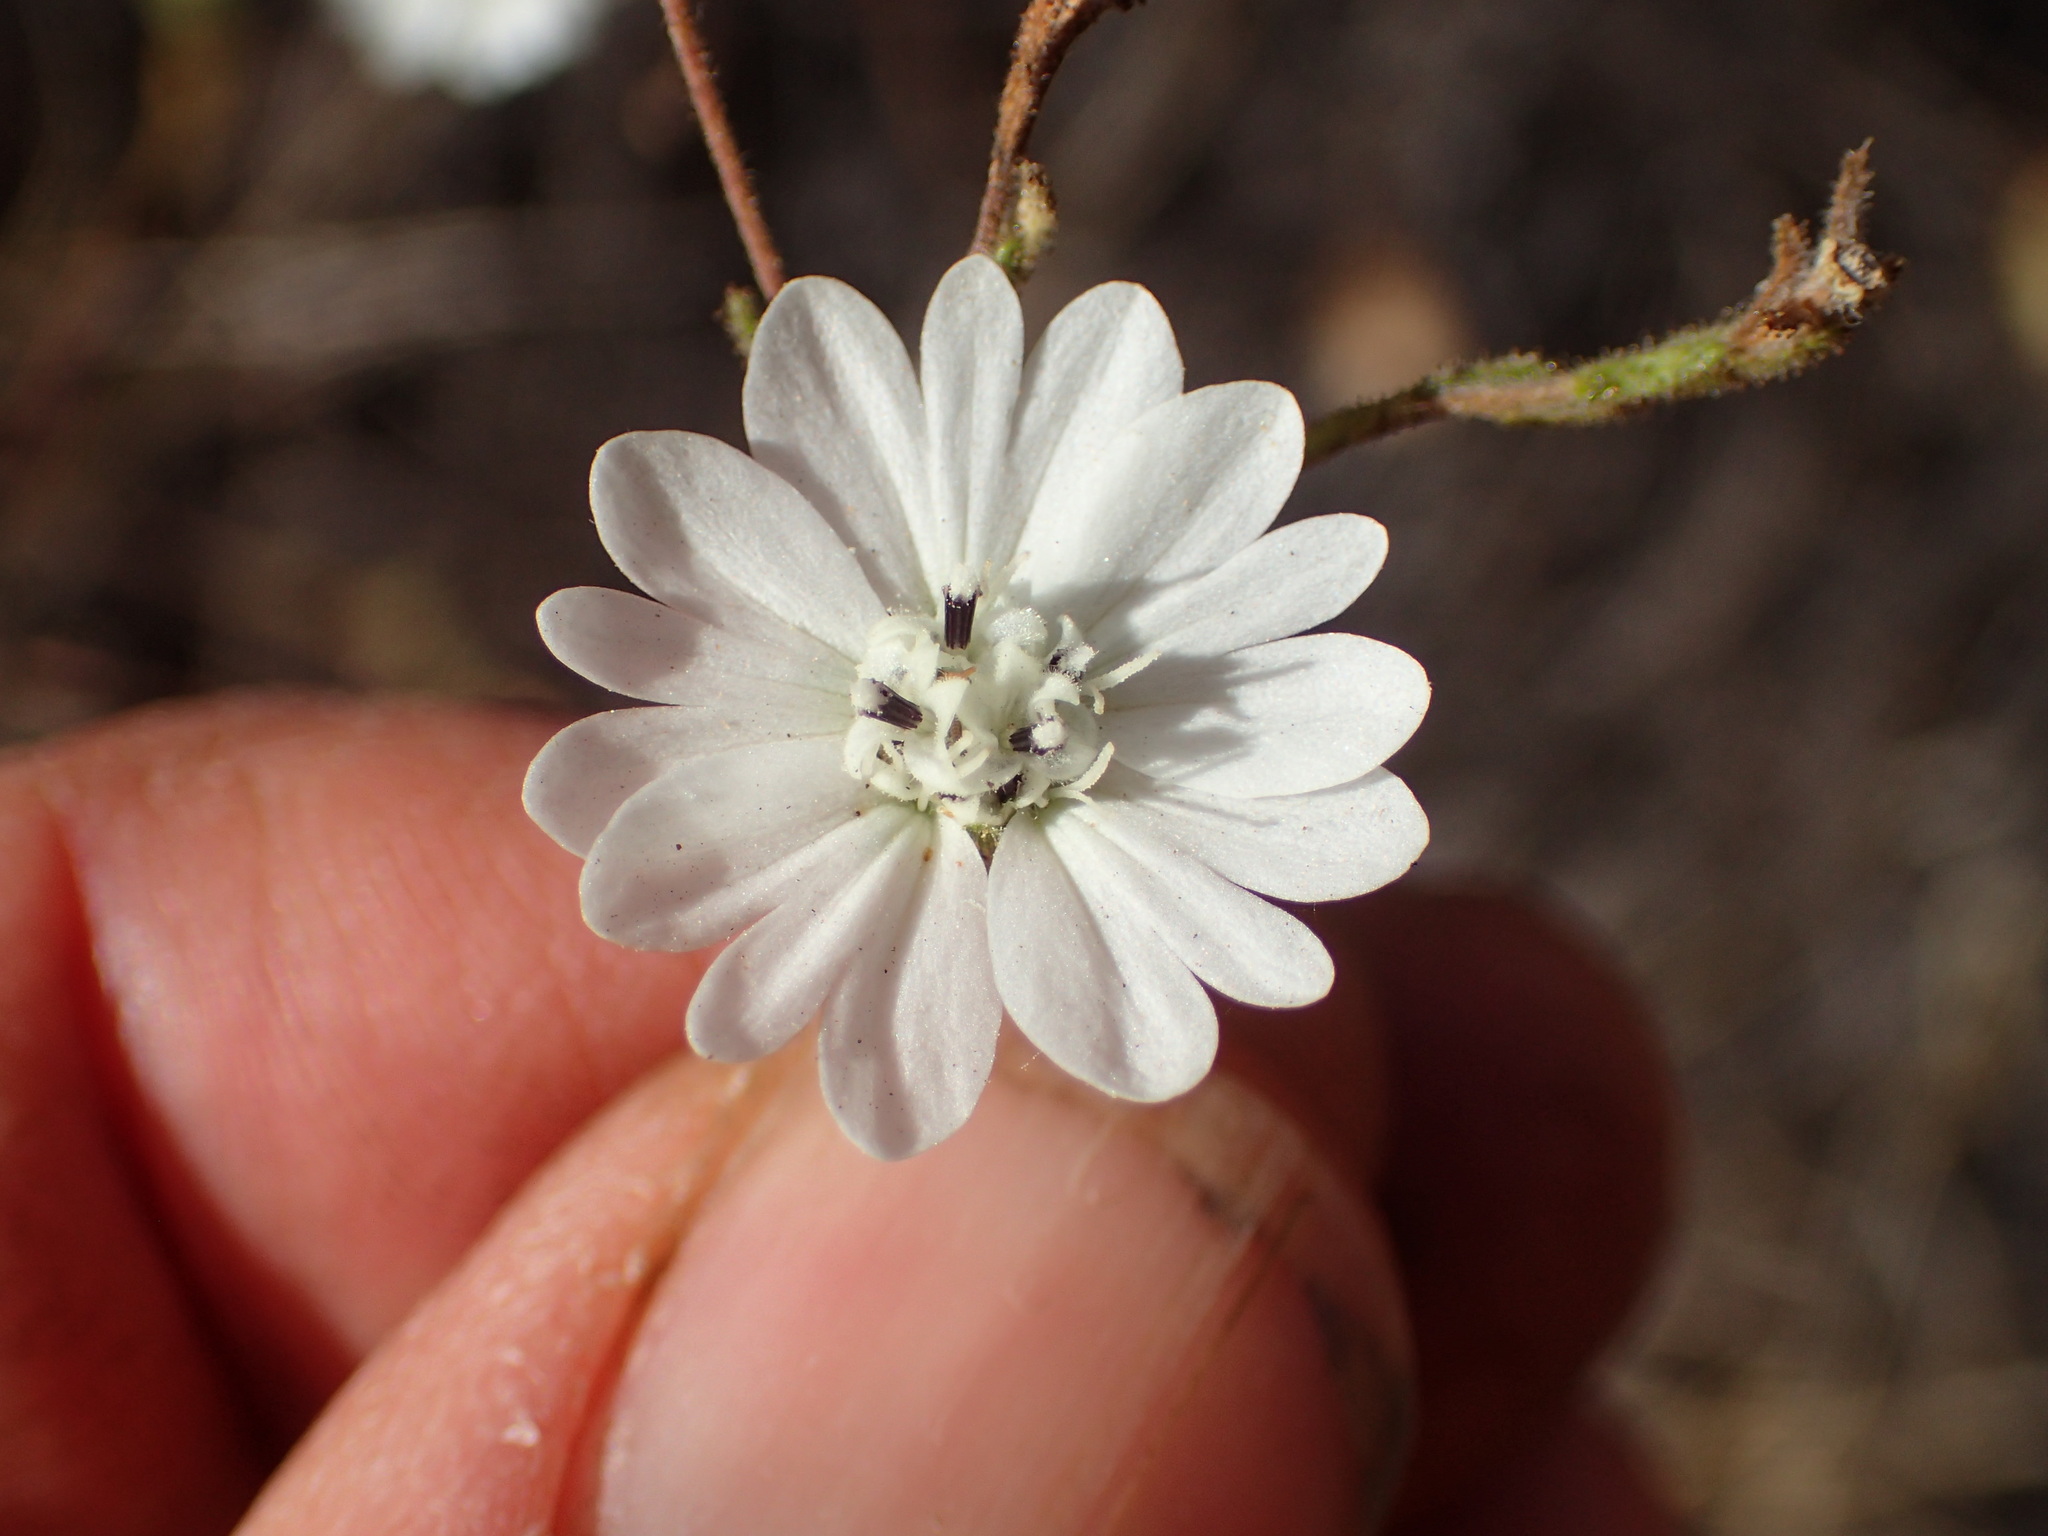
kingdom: Plantae
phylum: Tracheophyta
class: Magnoliopsida
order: Asterales
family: Asteraceae
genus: Hemizonia
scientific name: Hemizonia congesta
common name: Hayfield tarweed
